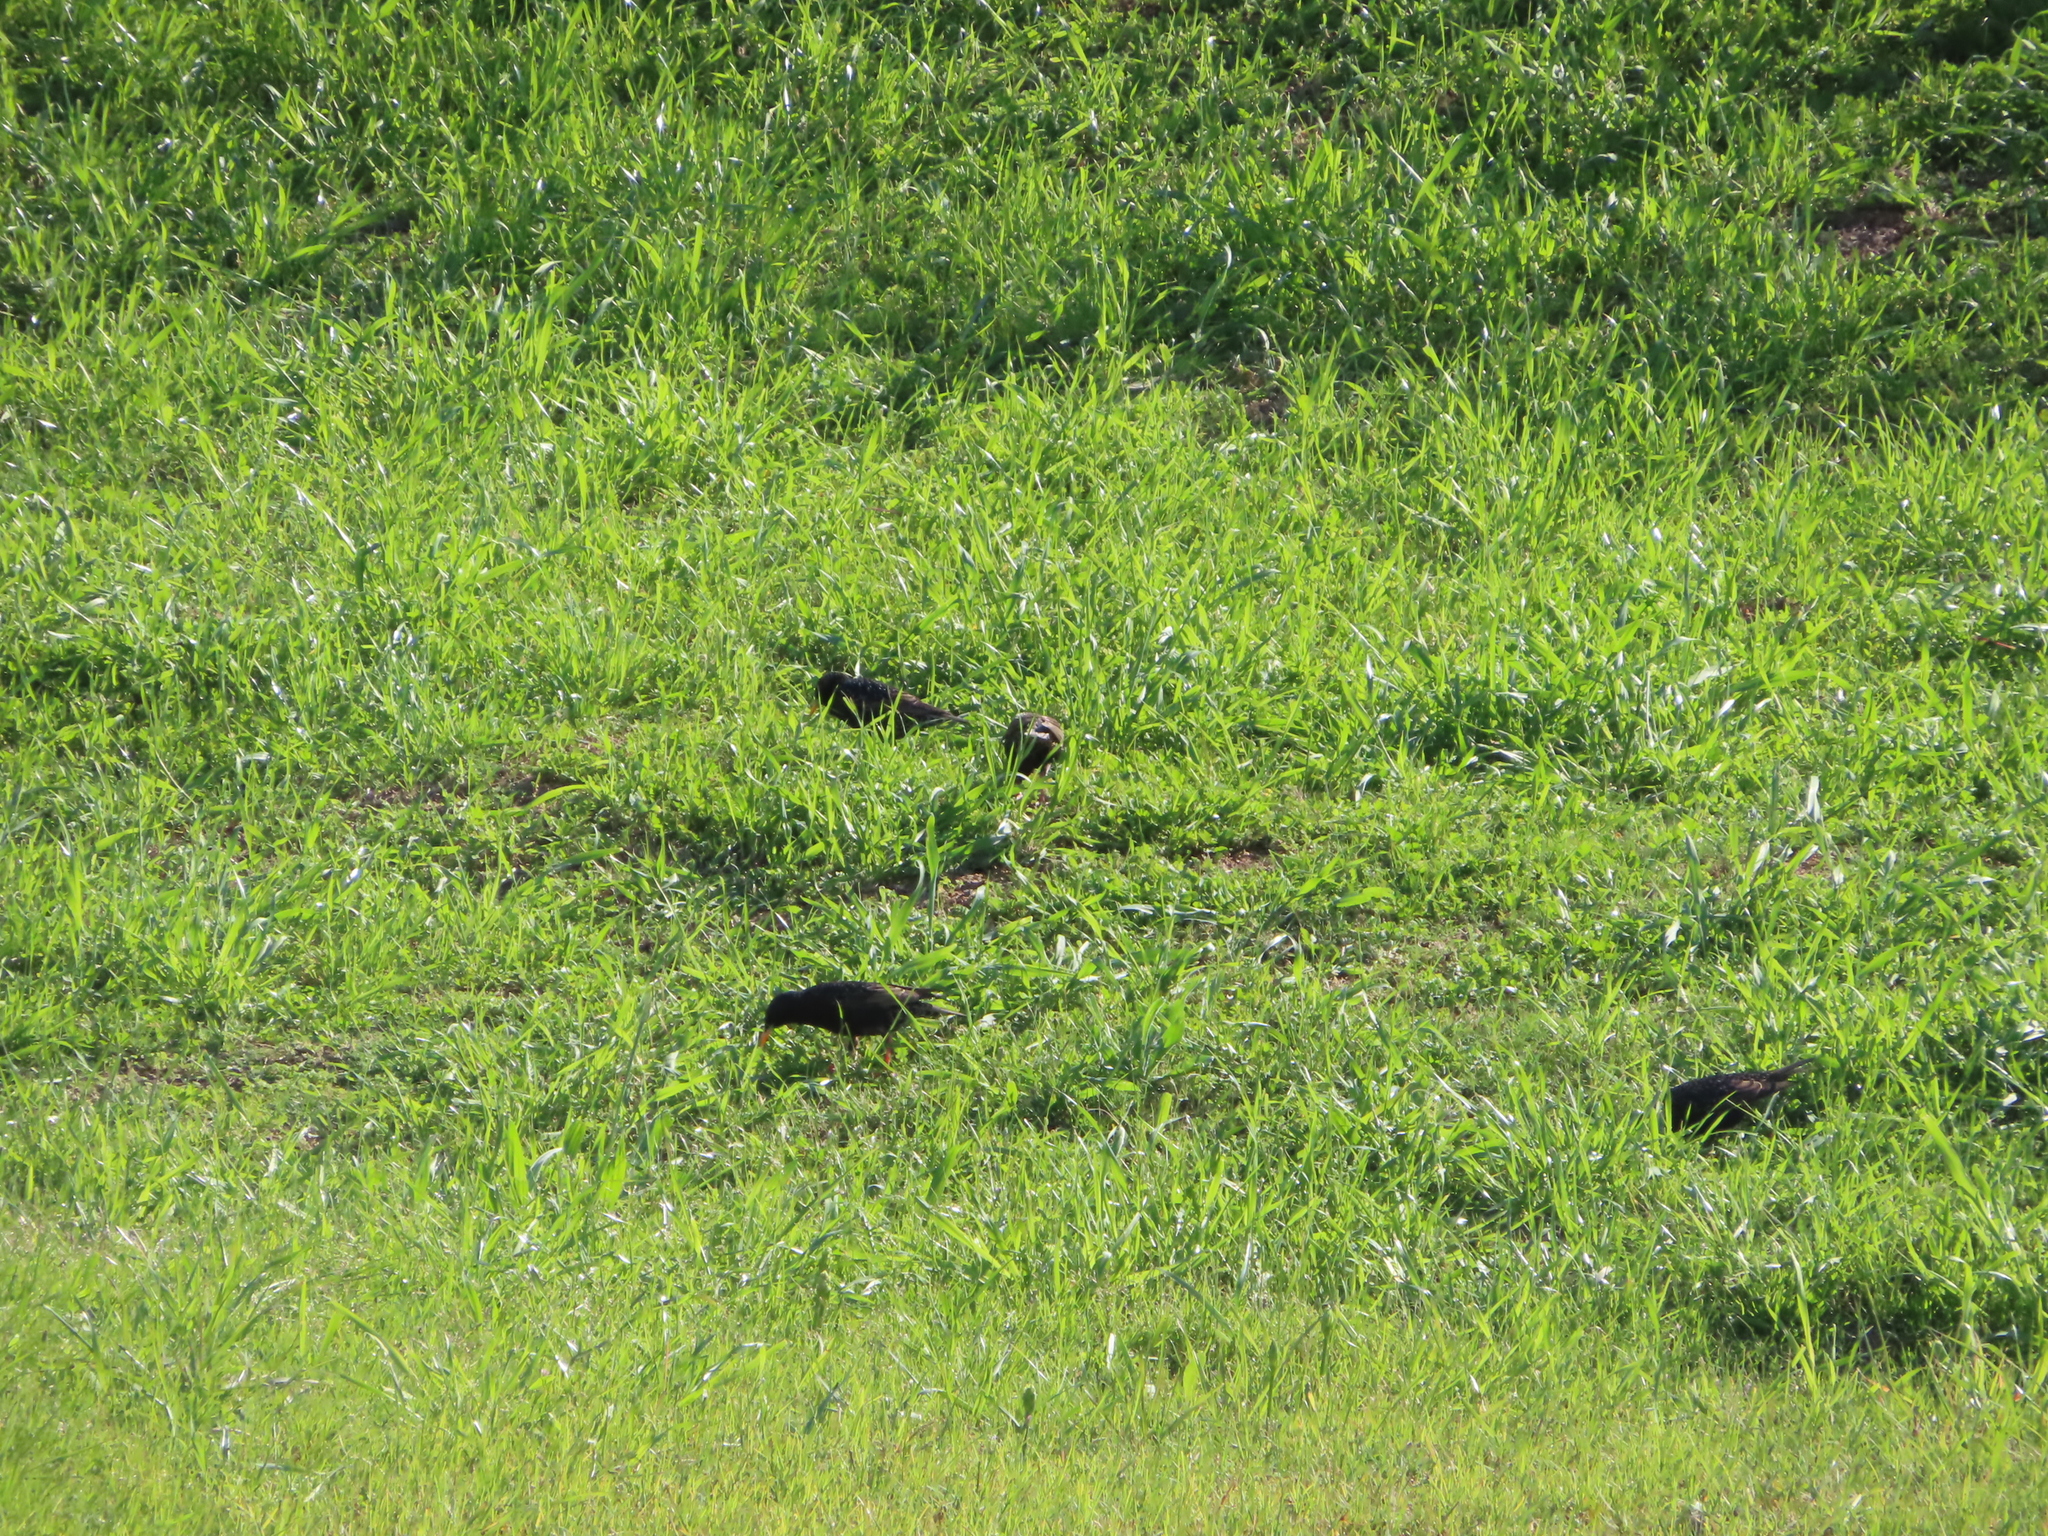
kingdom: Animalia
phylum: Chordata
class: Aves
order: Passeriformes
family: Sturnidae
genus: Sturnus
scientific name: Sturnus vulgaris
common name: Common starling
